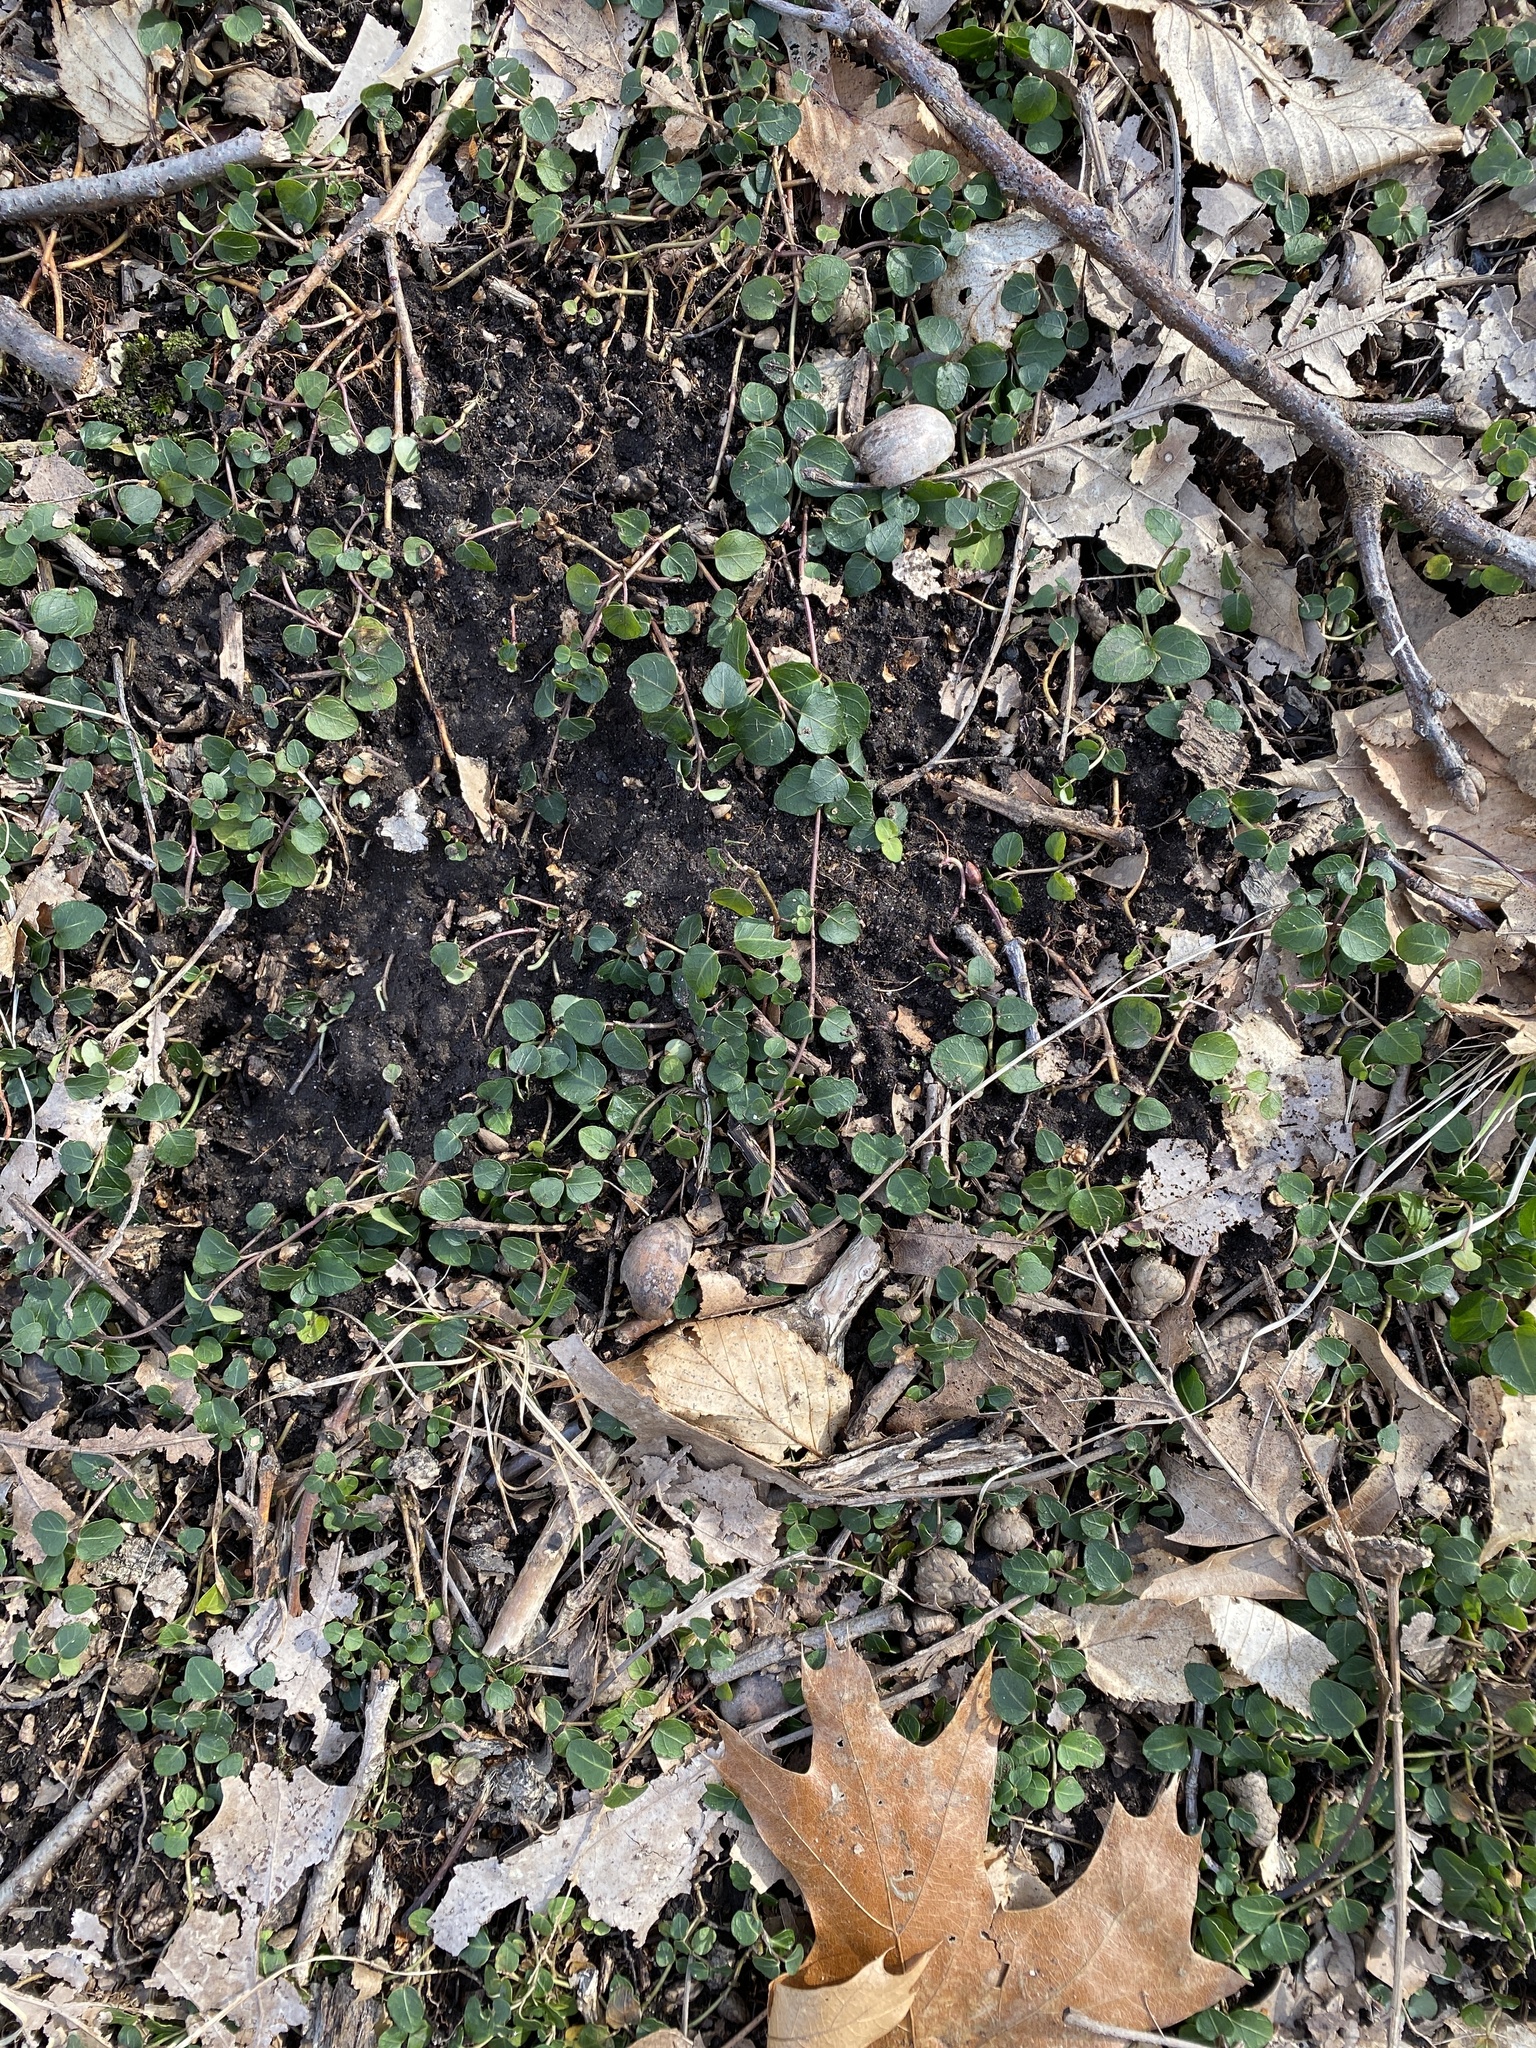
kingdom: Plantae
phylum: Tracheophyta
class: Magnoliopsida
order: Gentianales
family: Rubiaceae
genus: Mitchella
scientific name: Mitchella repens
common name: Partridge-berry
